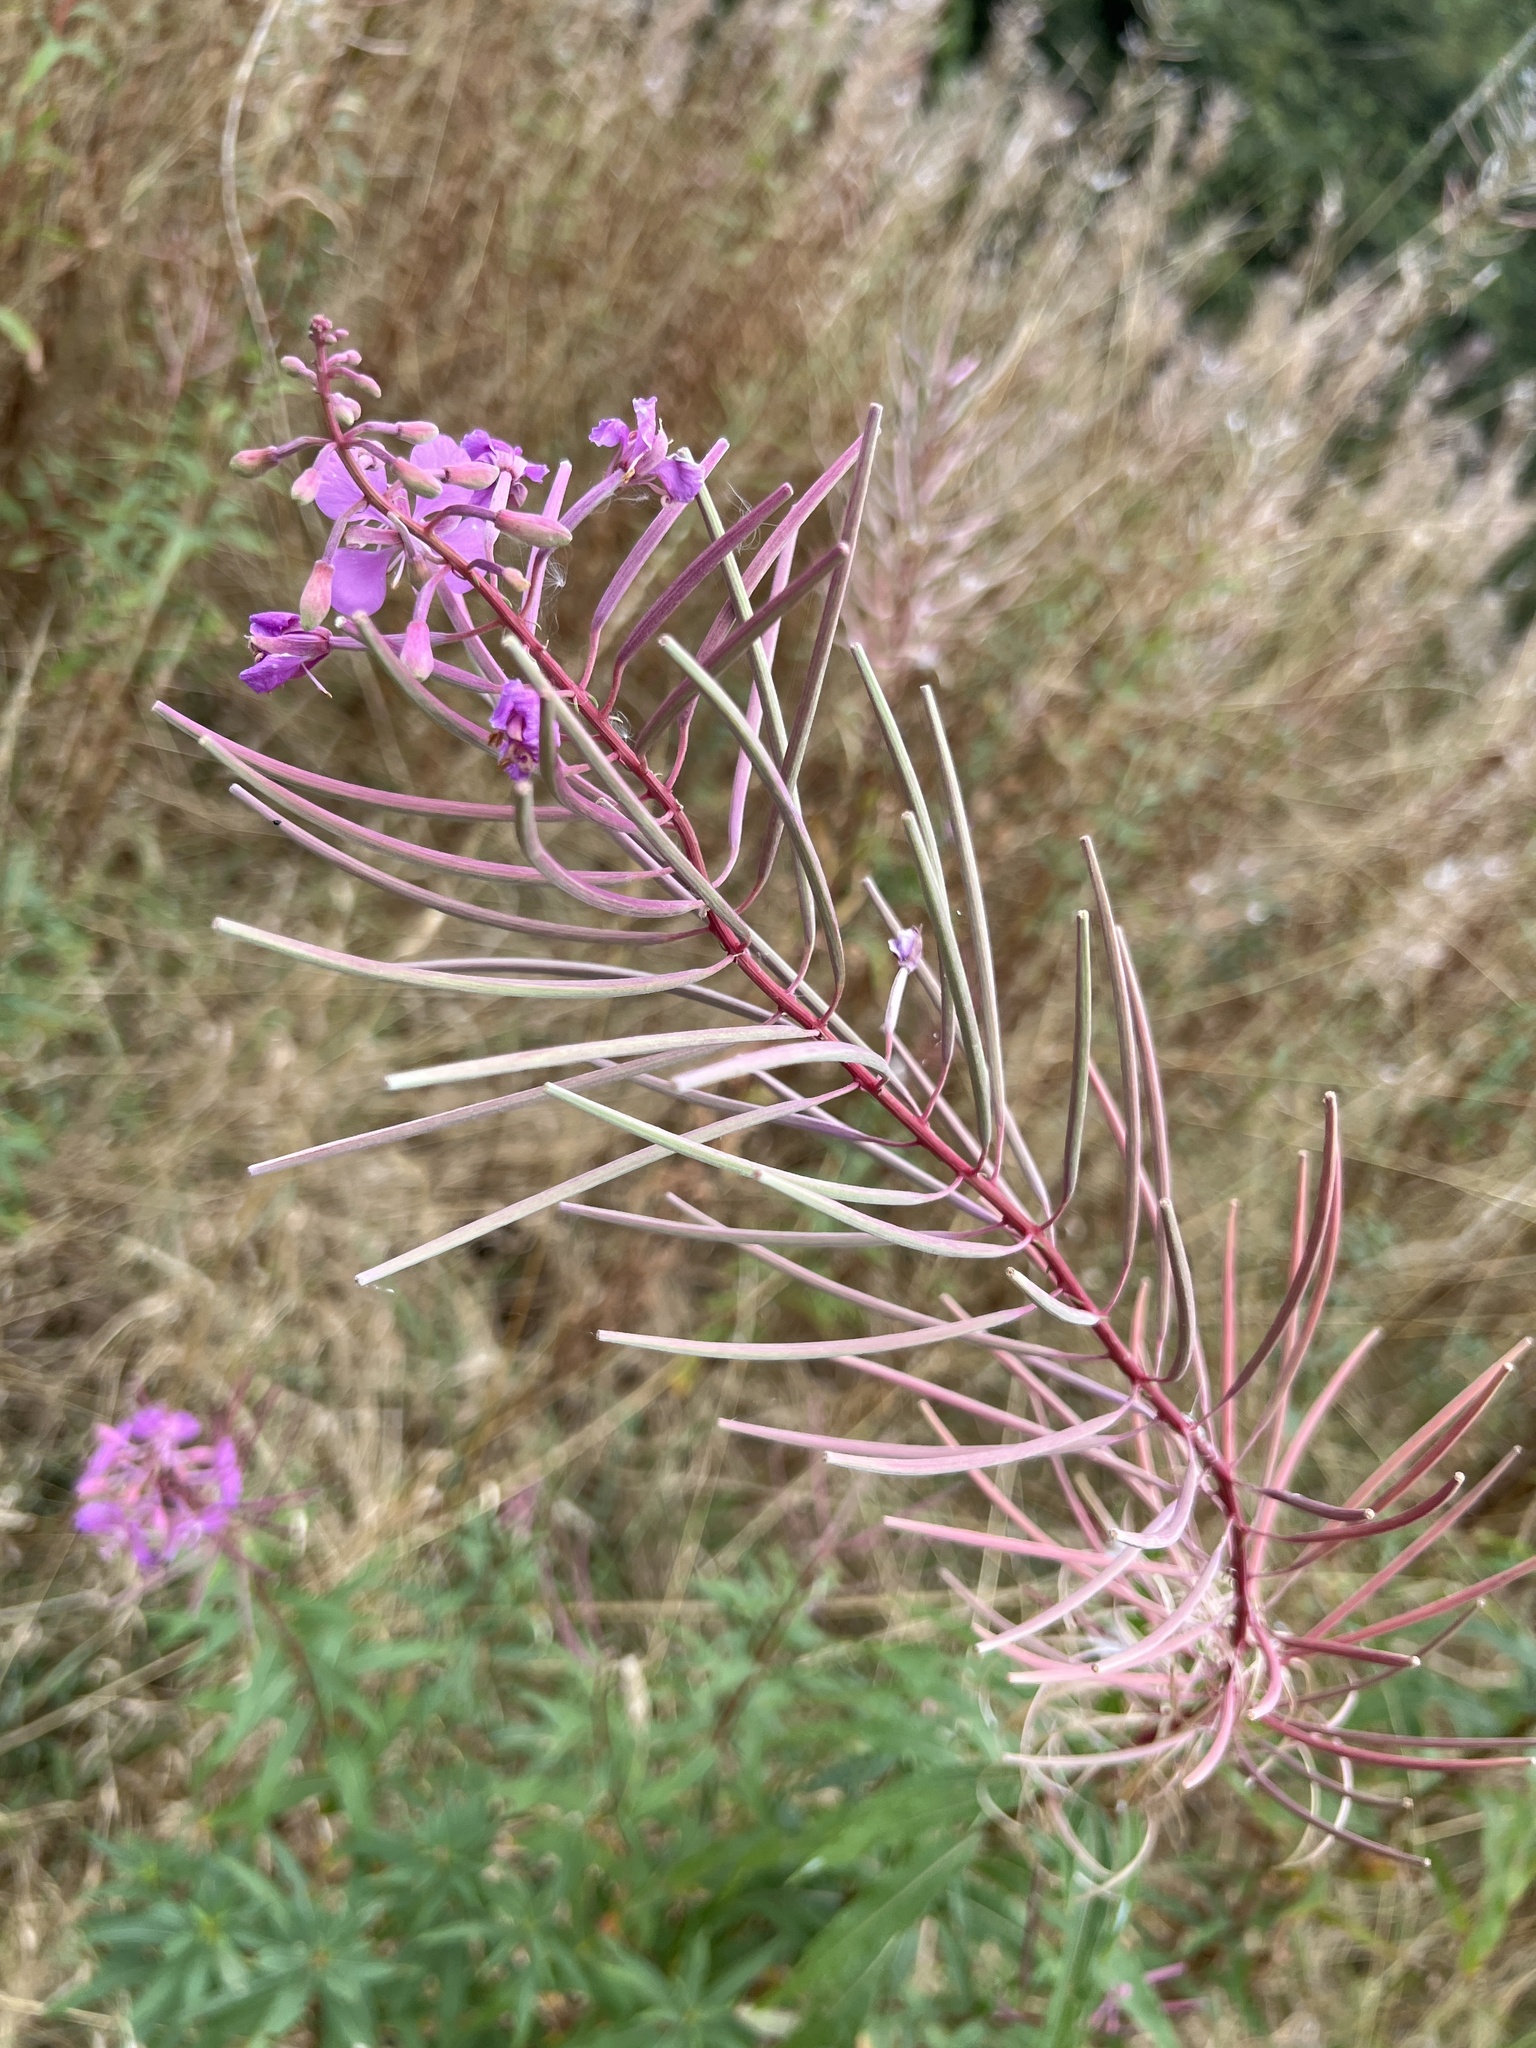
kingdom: Plantae
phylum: Tracheophyta
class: Magnoliopsida
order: Myrtales
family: Onagraceae
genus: Chamaenerion
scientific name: Chamaenerion angustifolium
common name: Fireweed
